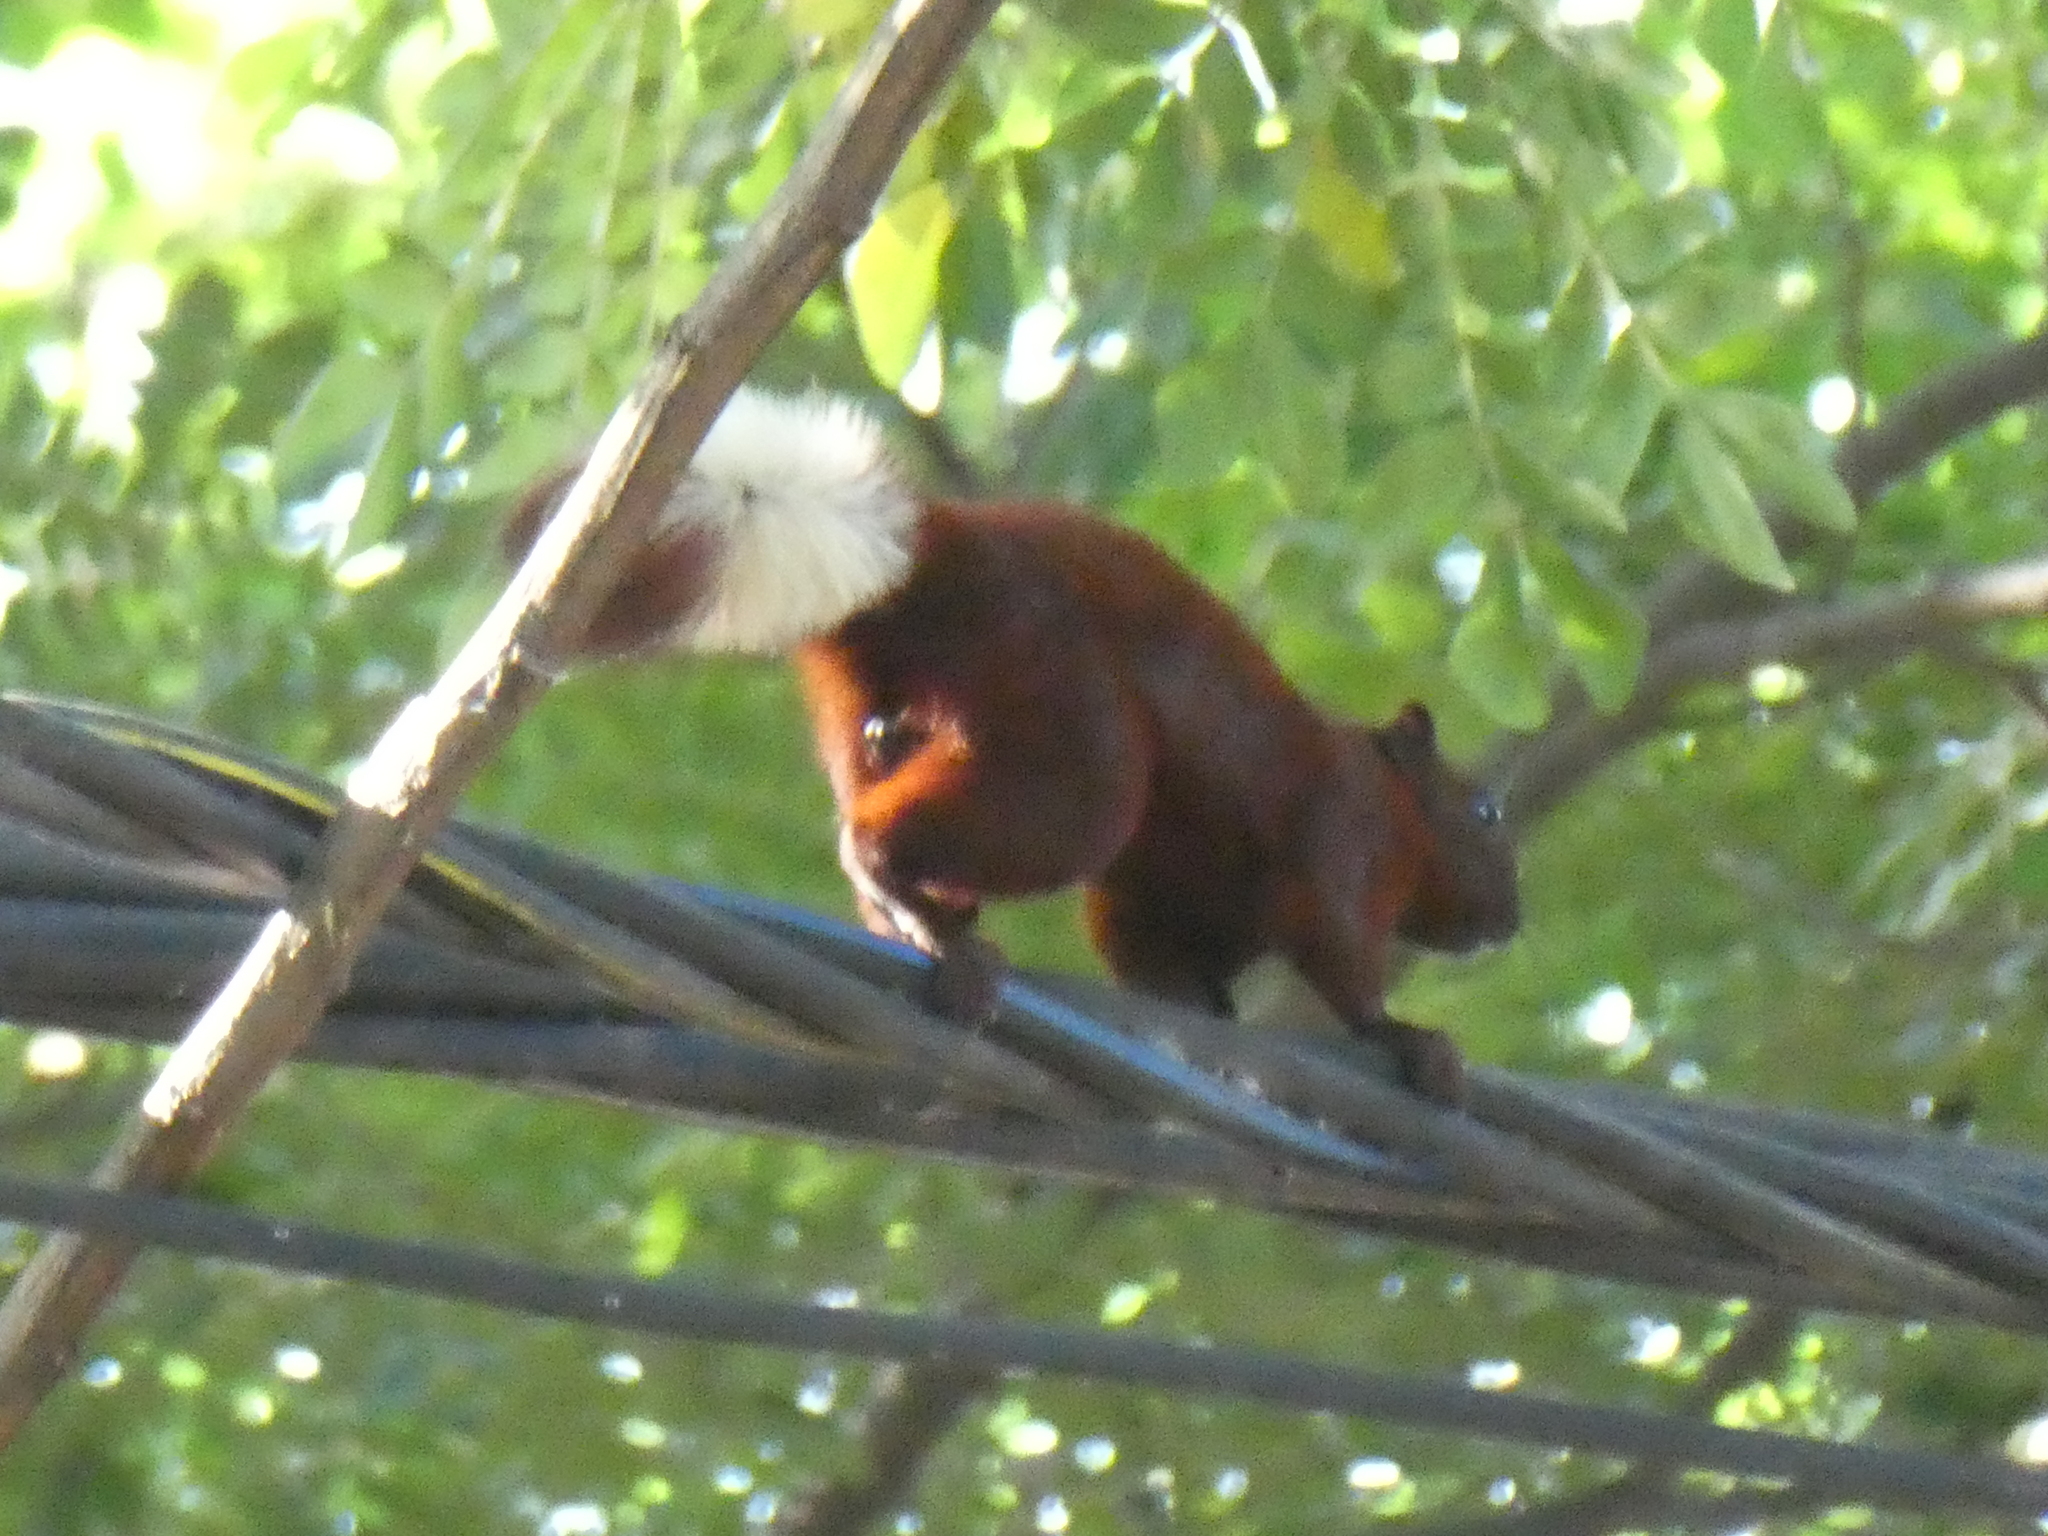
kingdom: Animalia
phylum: Chordata
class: Mammalia
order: Rodentia
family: Sciuridae
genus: Callosciurus
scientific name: Callosciurus finlaysonii
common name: Finlayson's squirrel
